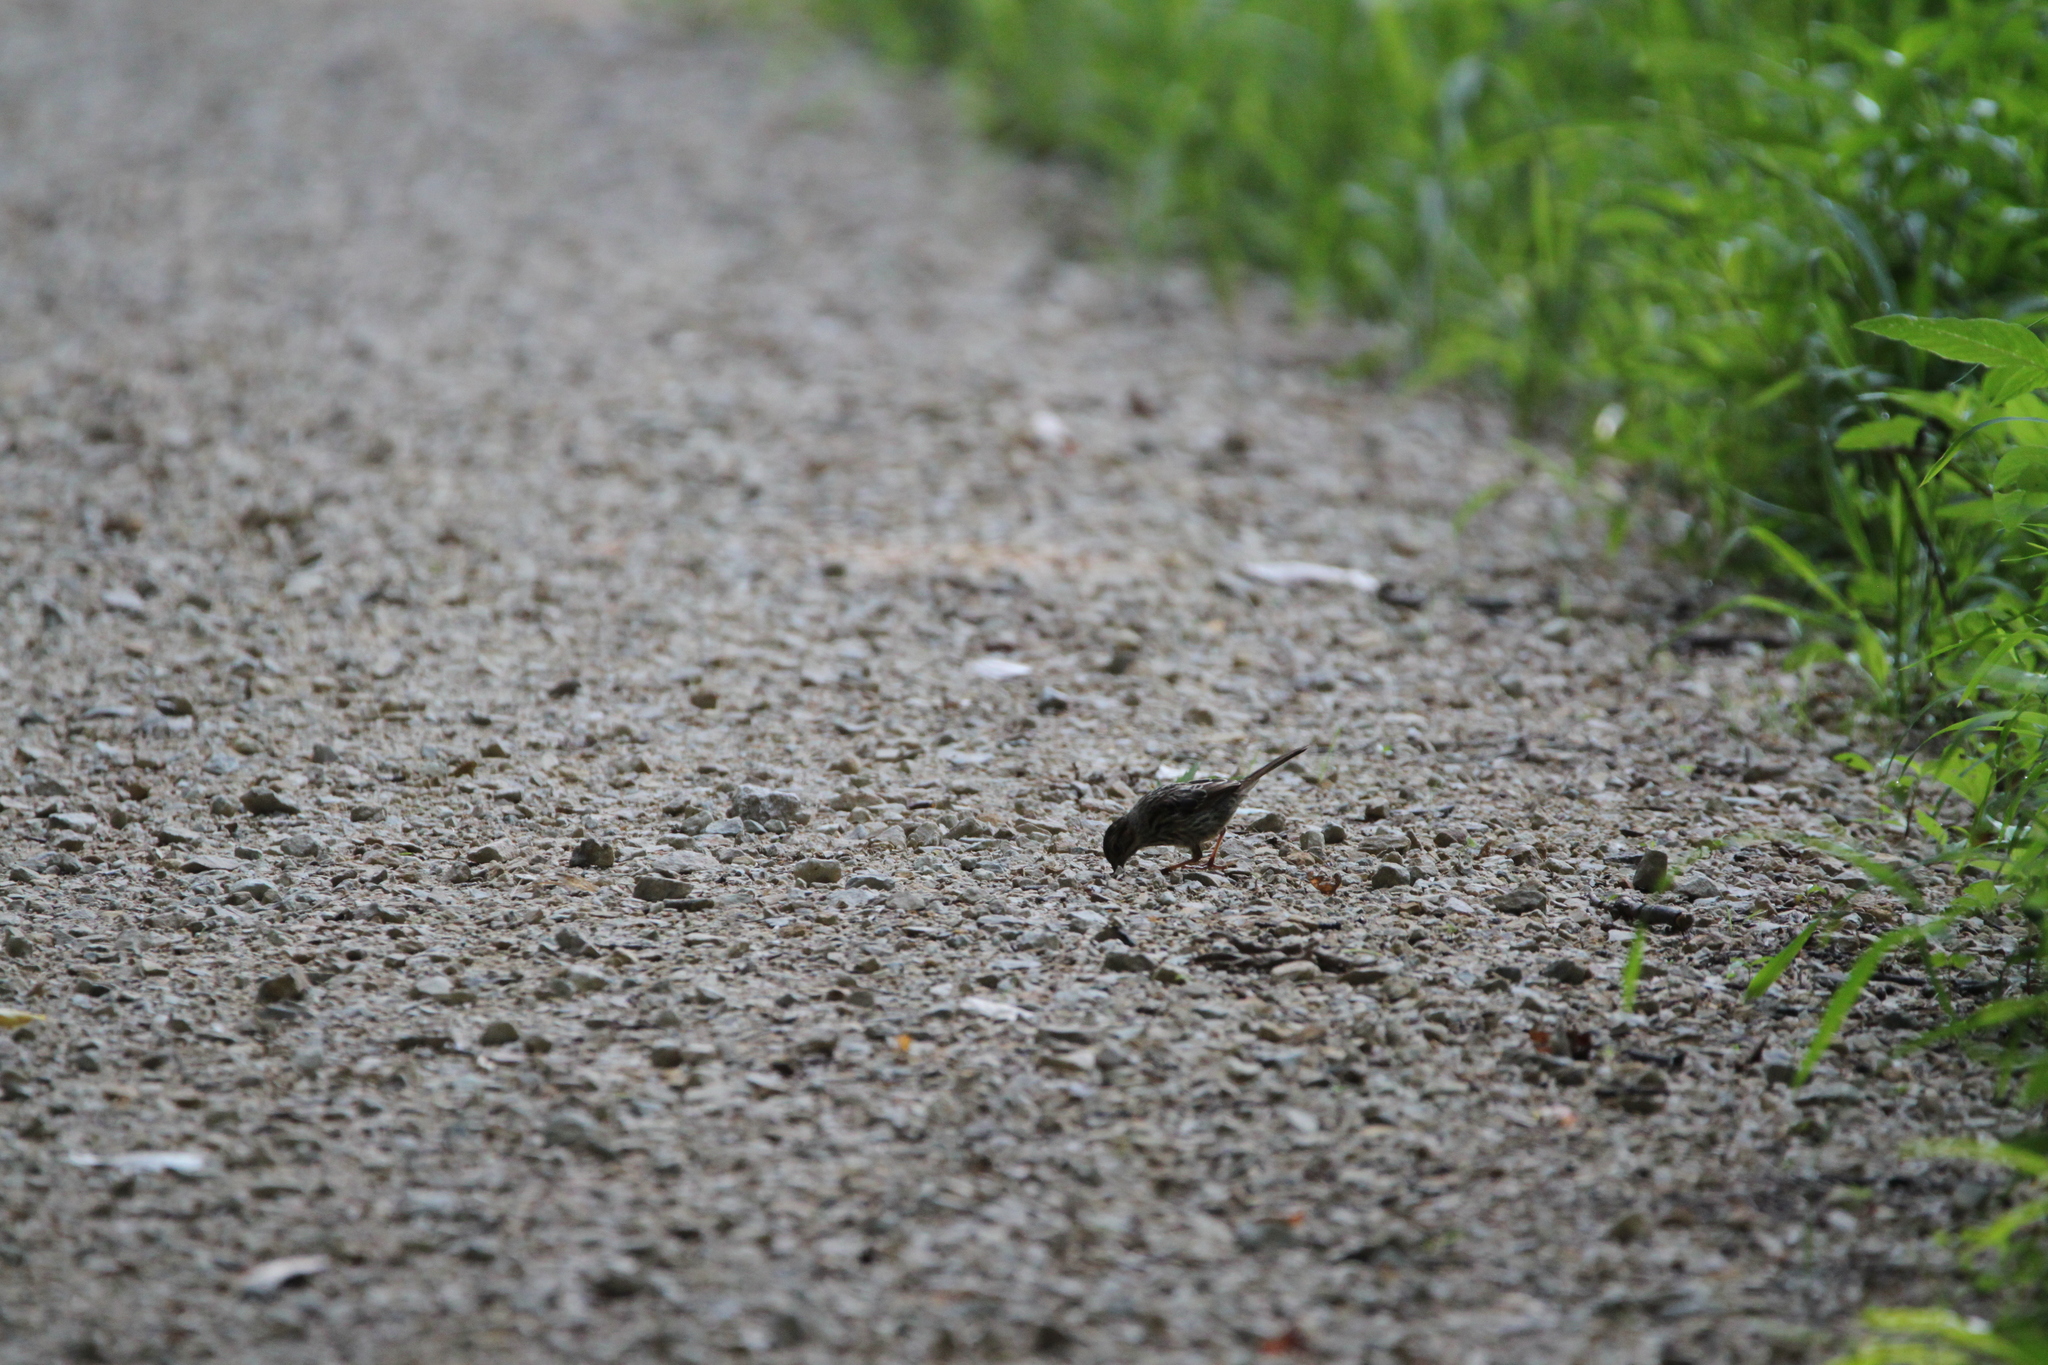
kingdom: Animalia
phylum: Chordata
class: Aves
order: Passeriformes
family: Passerellidae
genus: Melospiza
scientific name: Melospiza melodia
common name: Song sparrow
